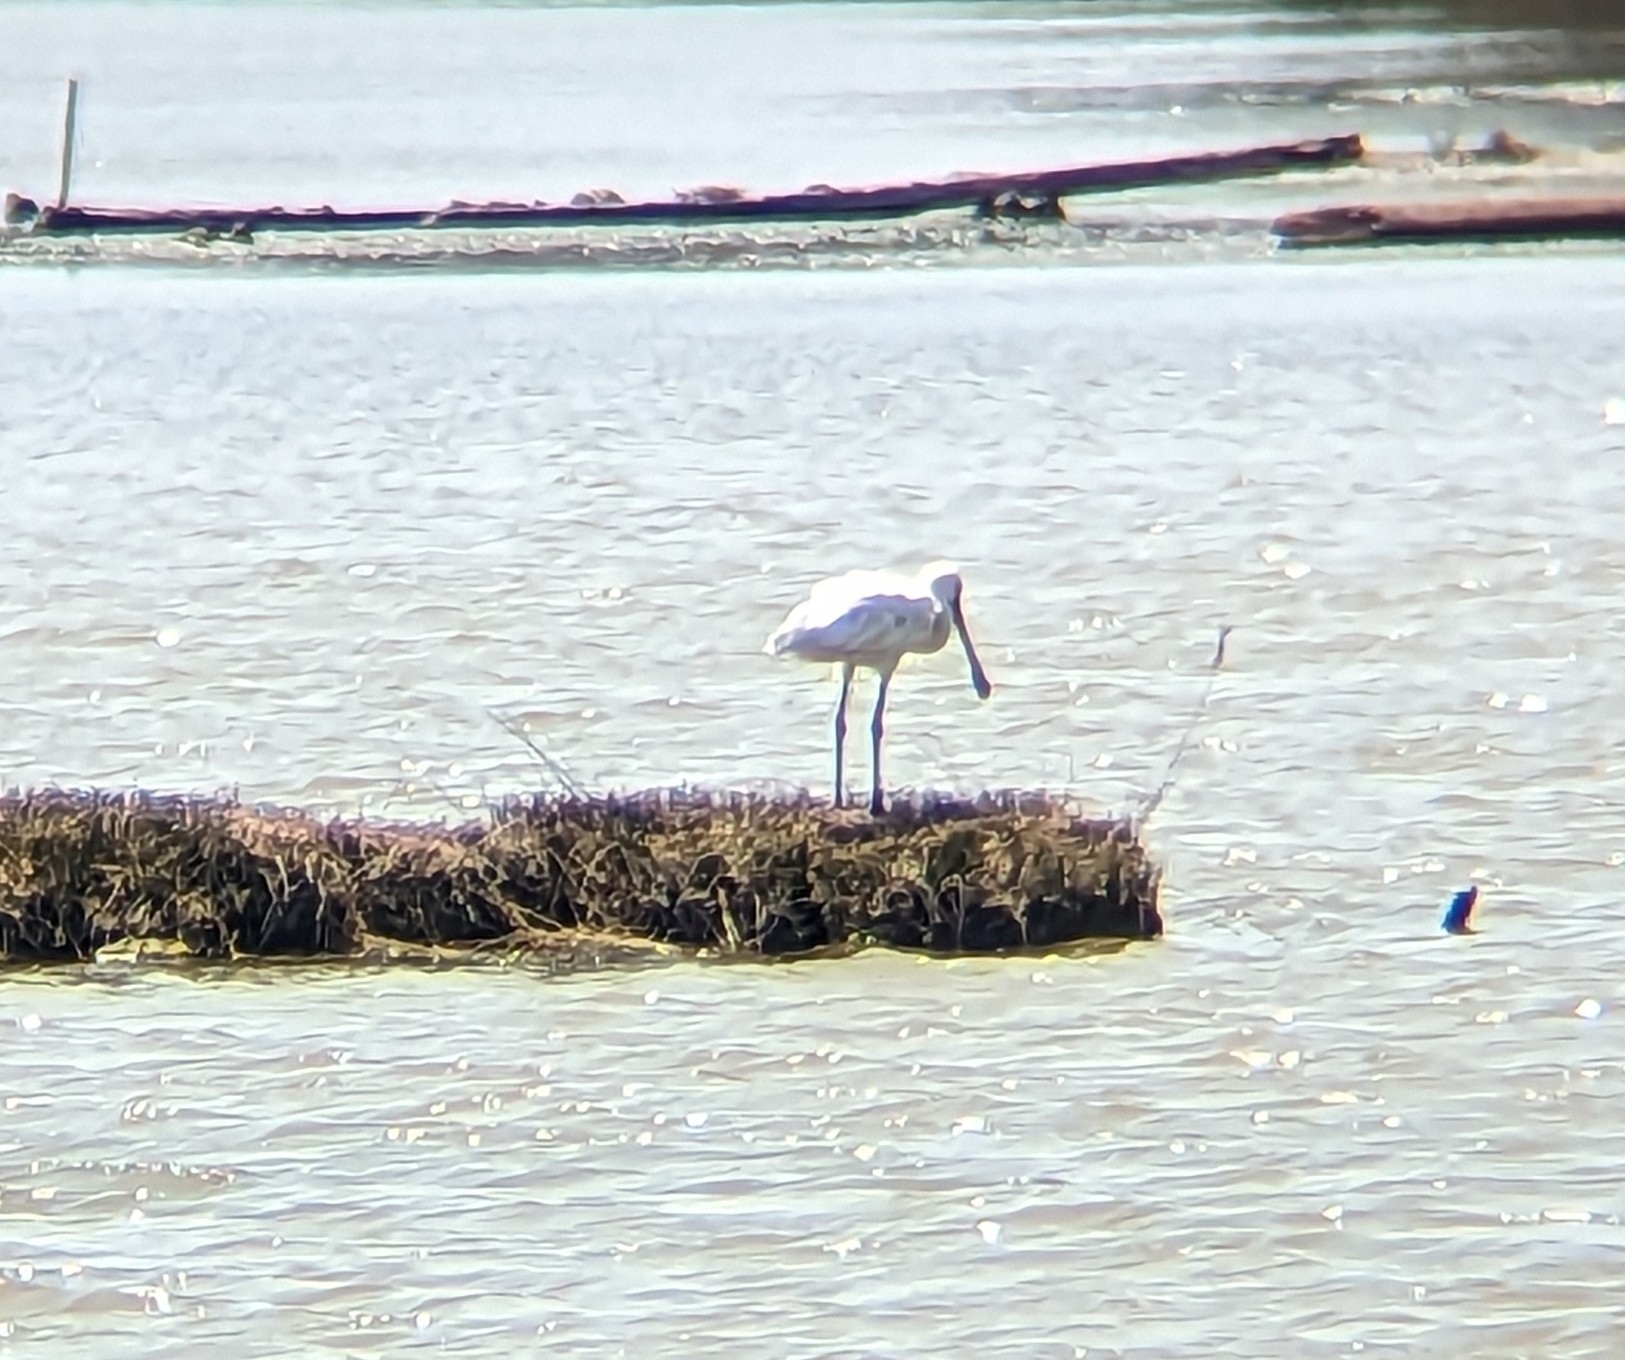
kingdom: Animalia
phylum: Chordata
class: Aves
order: Pelecaniformes
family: Threskiornithidae
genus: Platalea
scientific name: Platalea leucorodia
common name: Eurasian spoonbill
